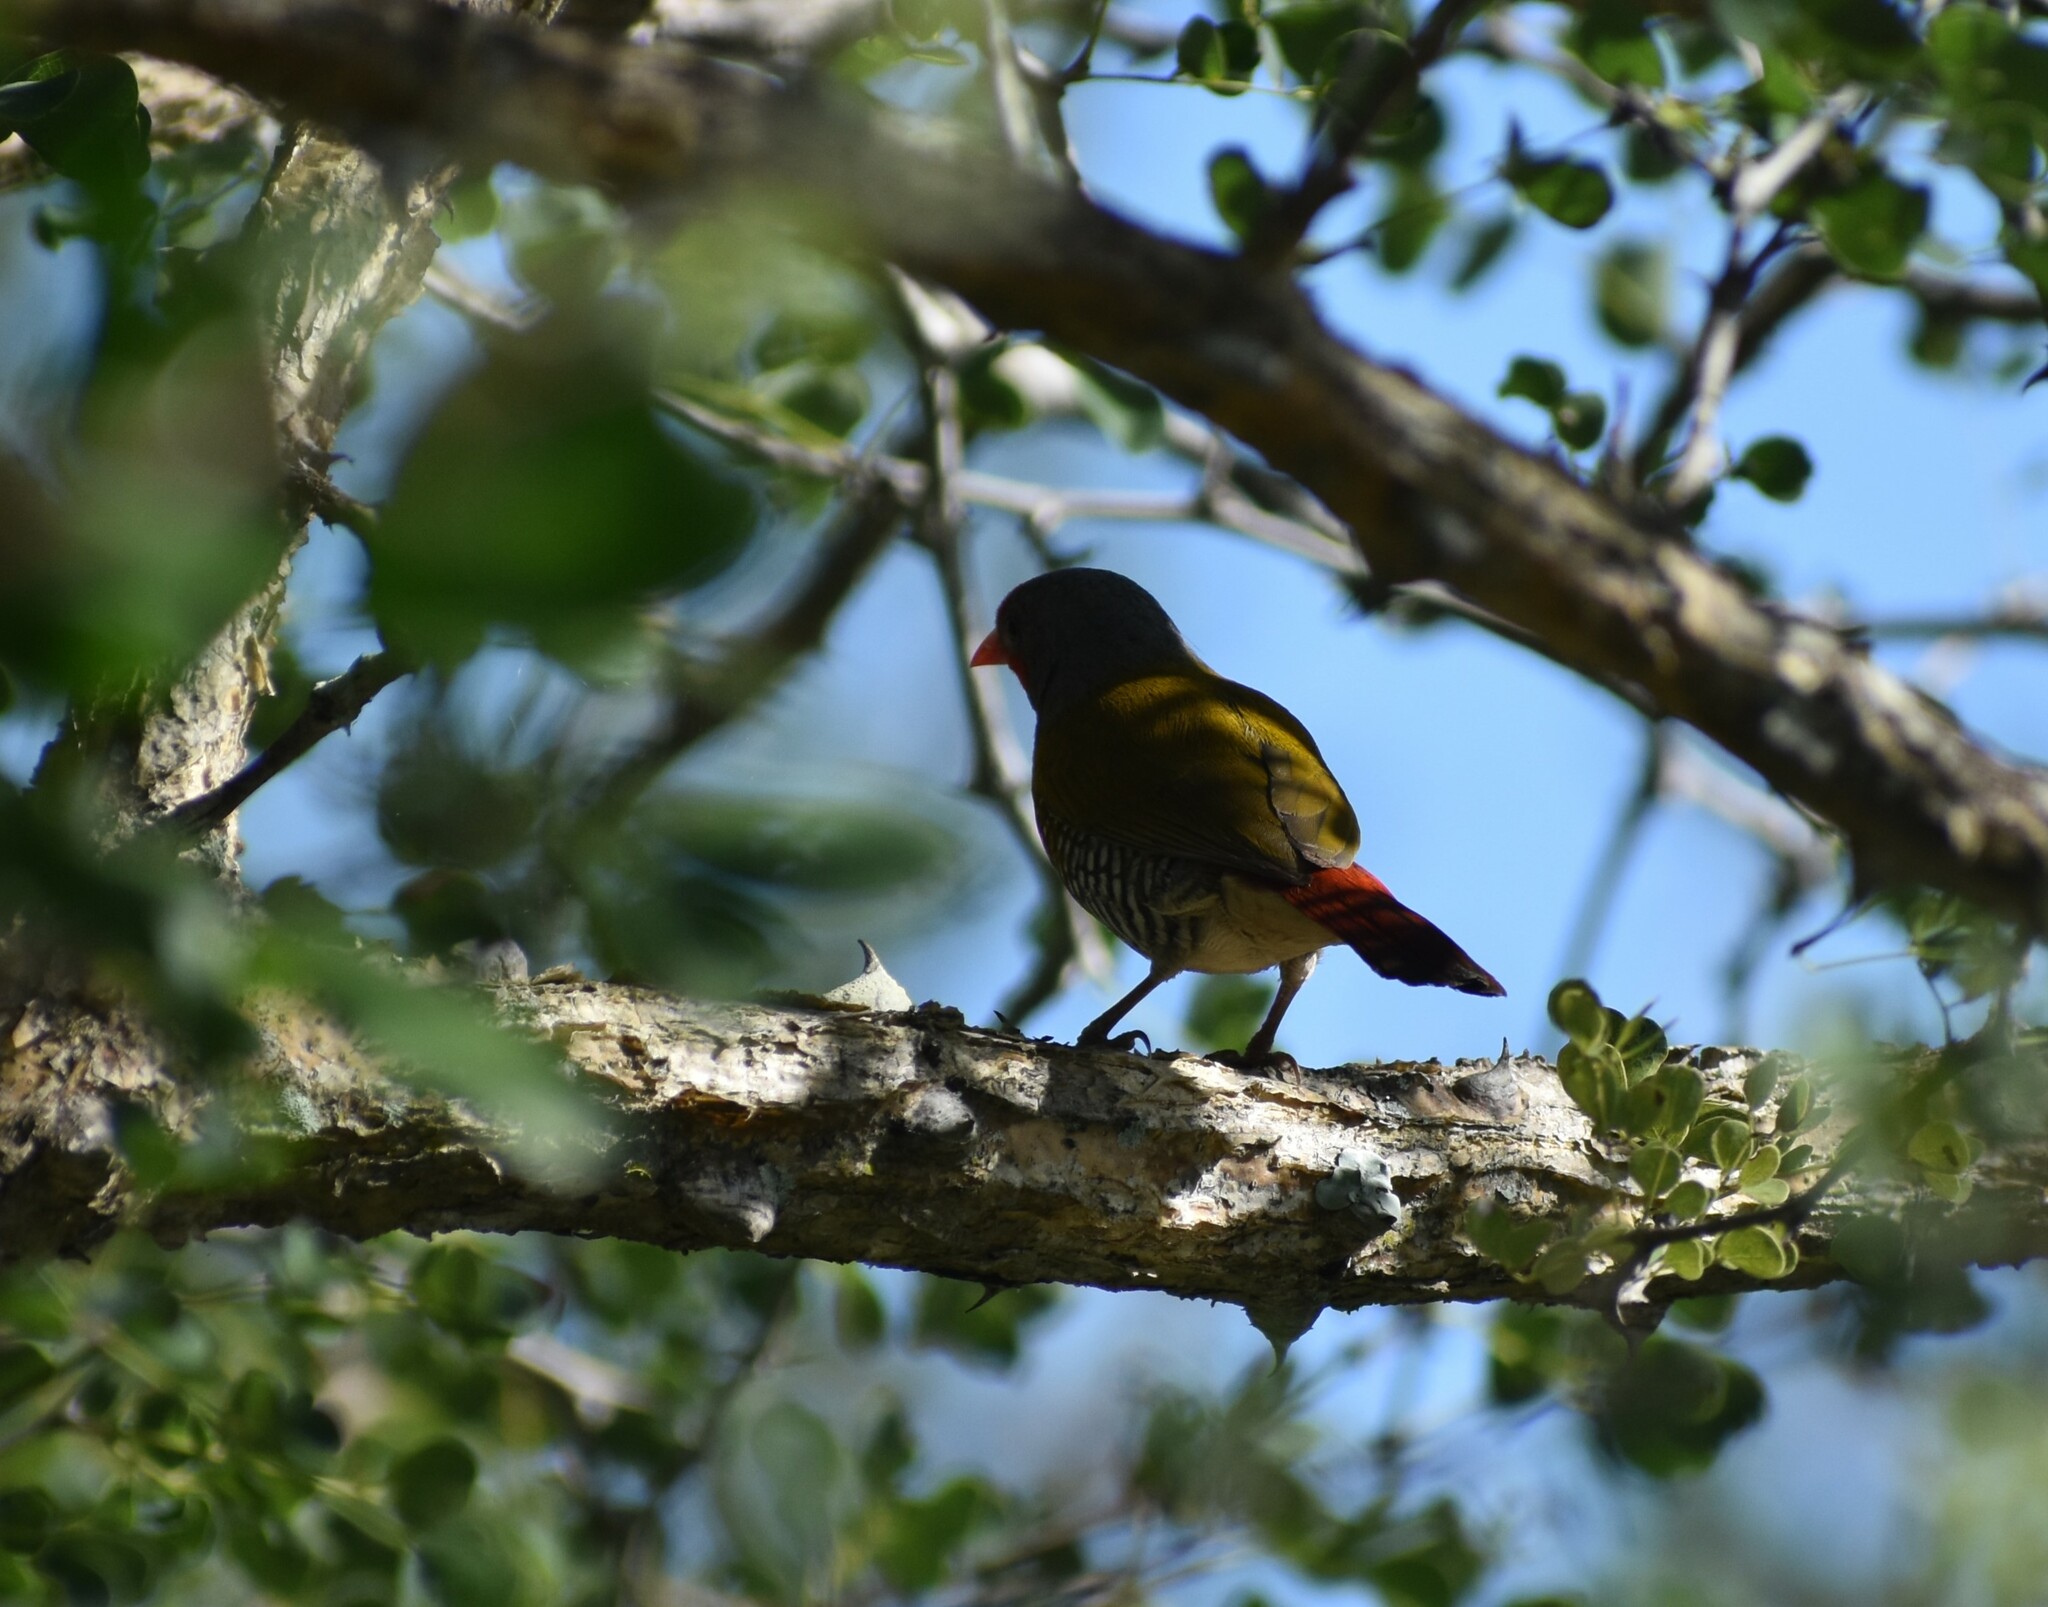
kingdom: Animalia
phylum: Chordata
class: Aves
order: Passeriformes
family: Estrildidae
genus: Pytilia
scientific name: Pytilia melba
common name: Green-winged pytilia
